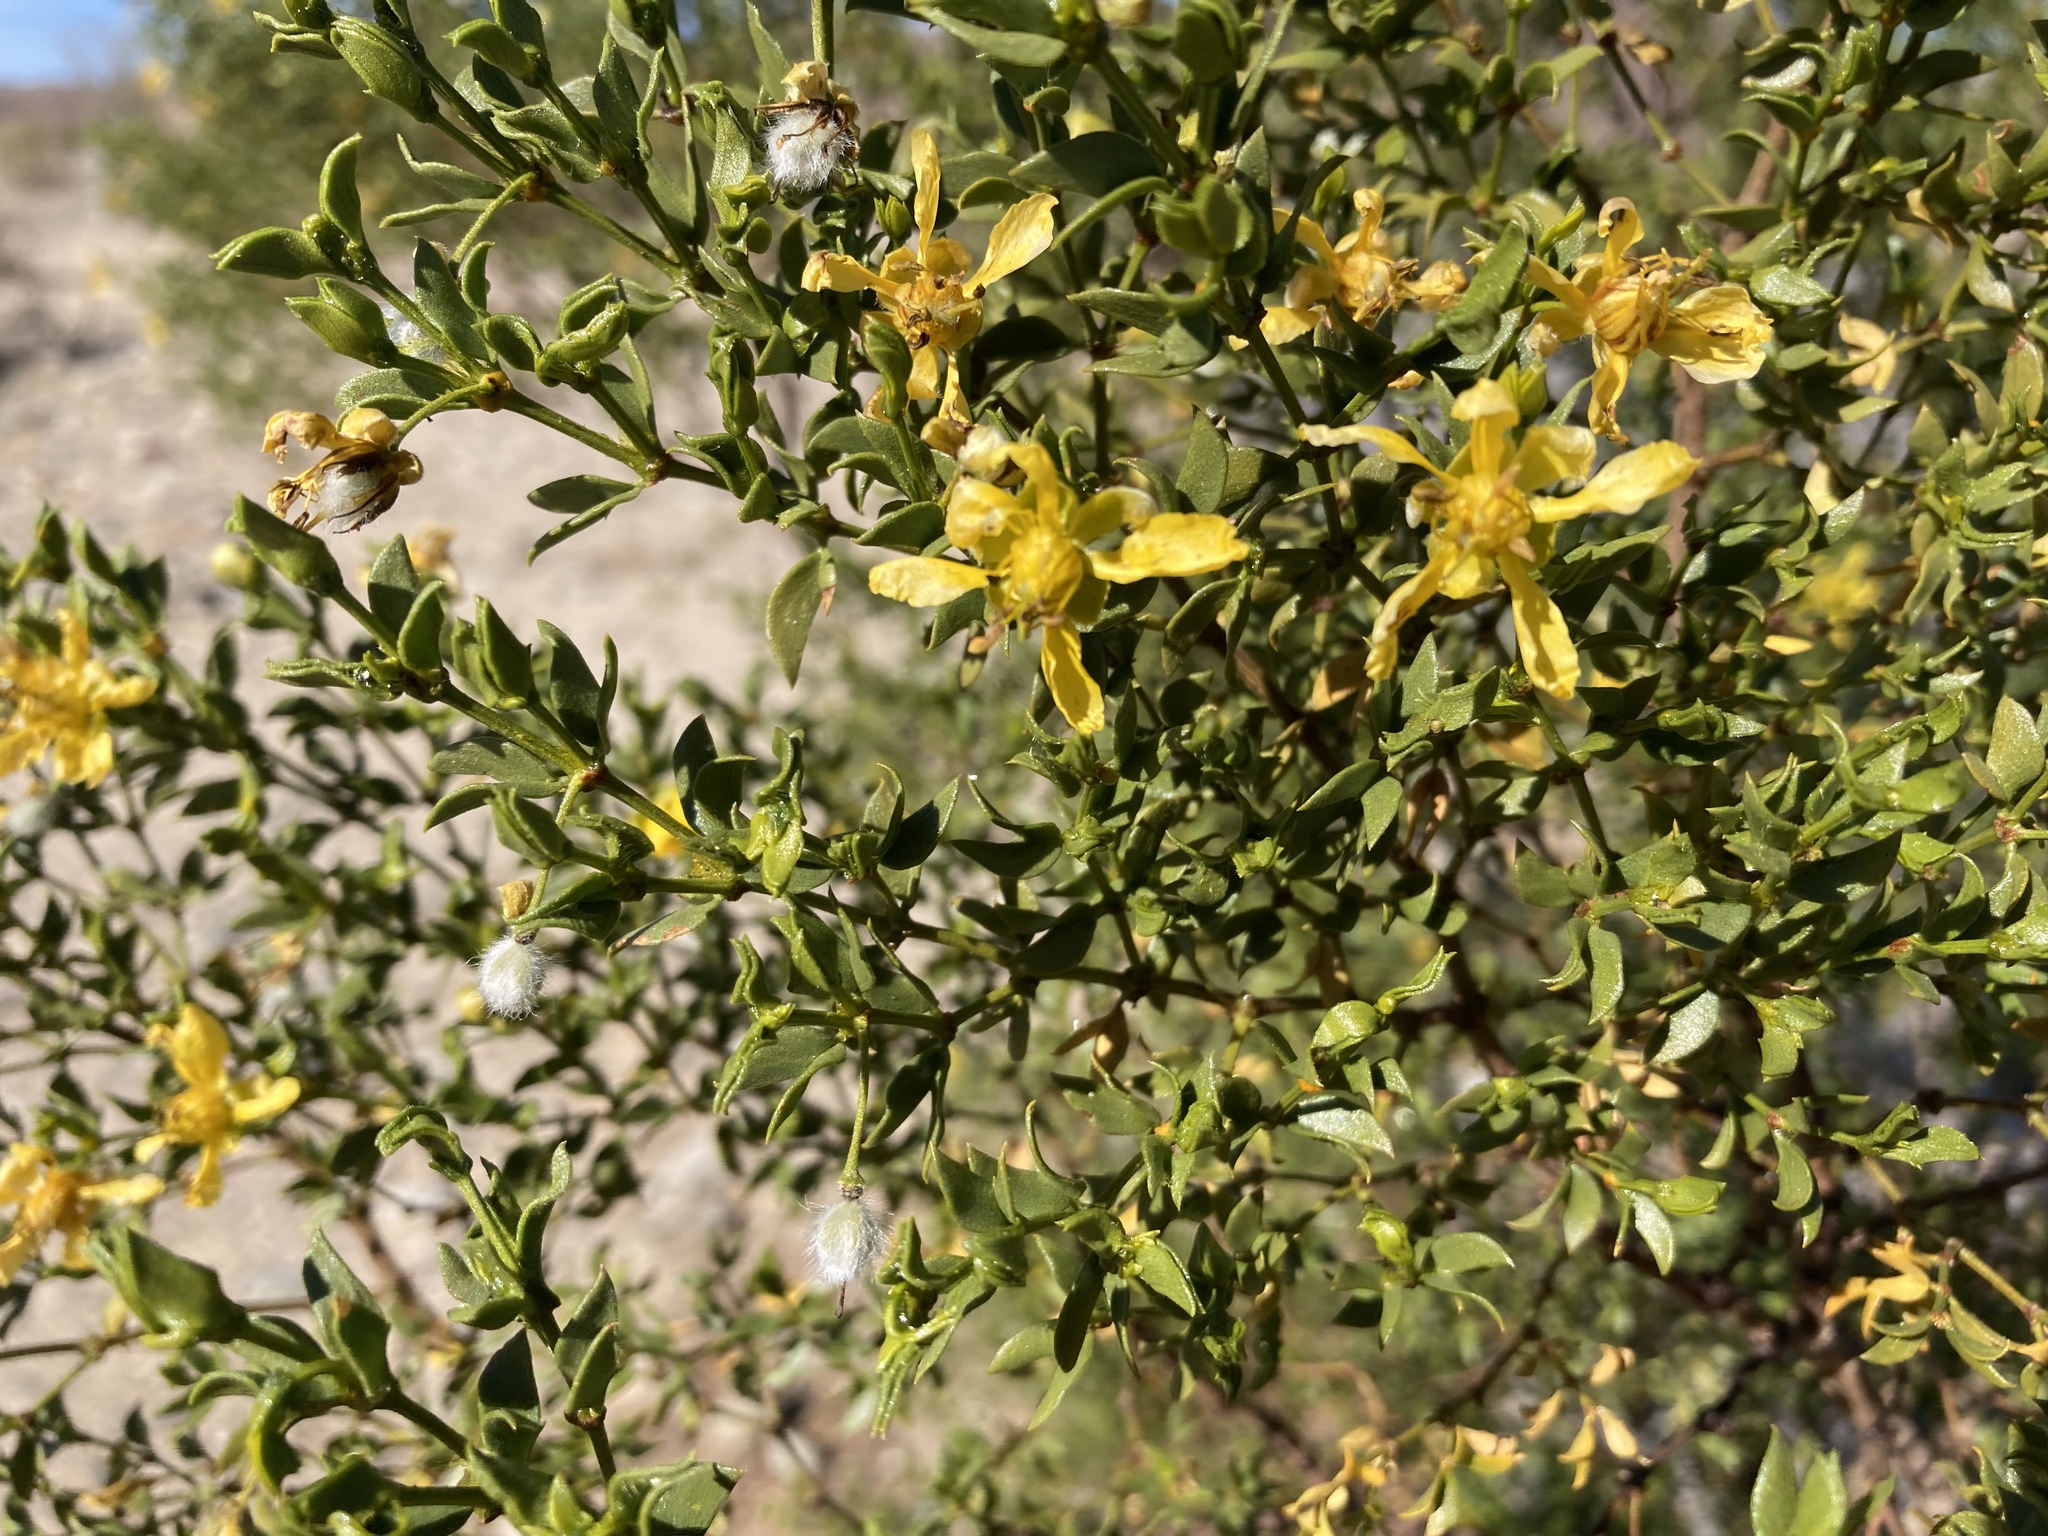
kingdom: Plantae
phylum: Tracheophyta
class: Magnoliopsida
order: Zygophyllales
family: Zygophyllaceae
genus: Larrea
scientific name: Larrea tridentata
